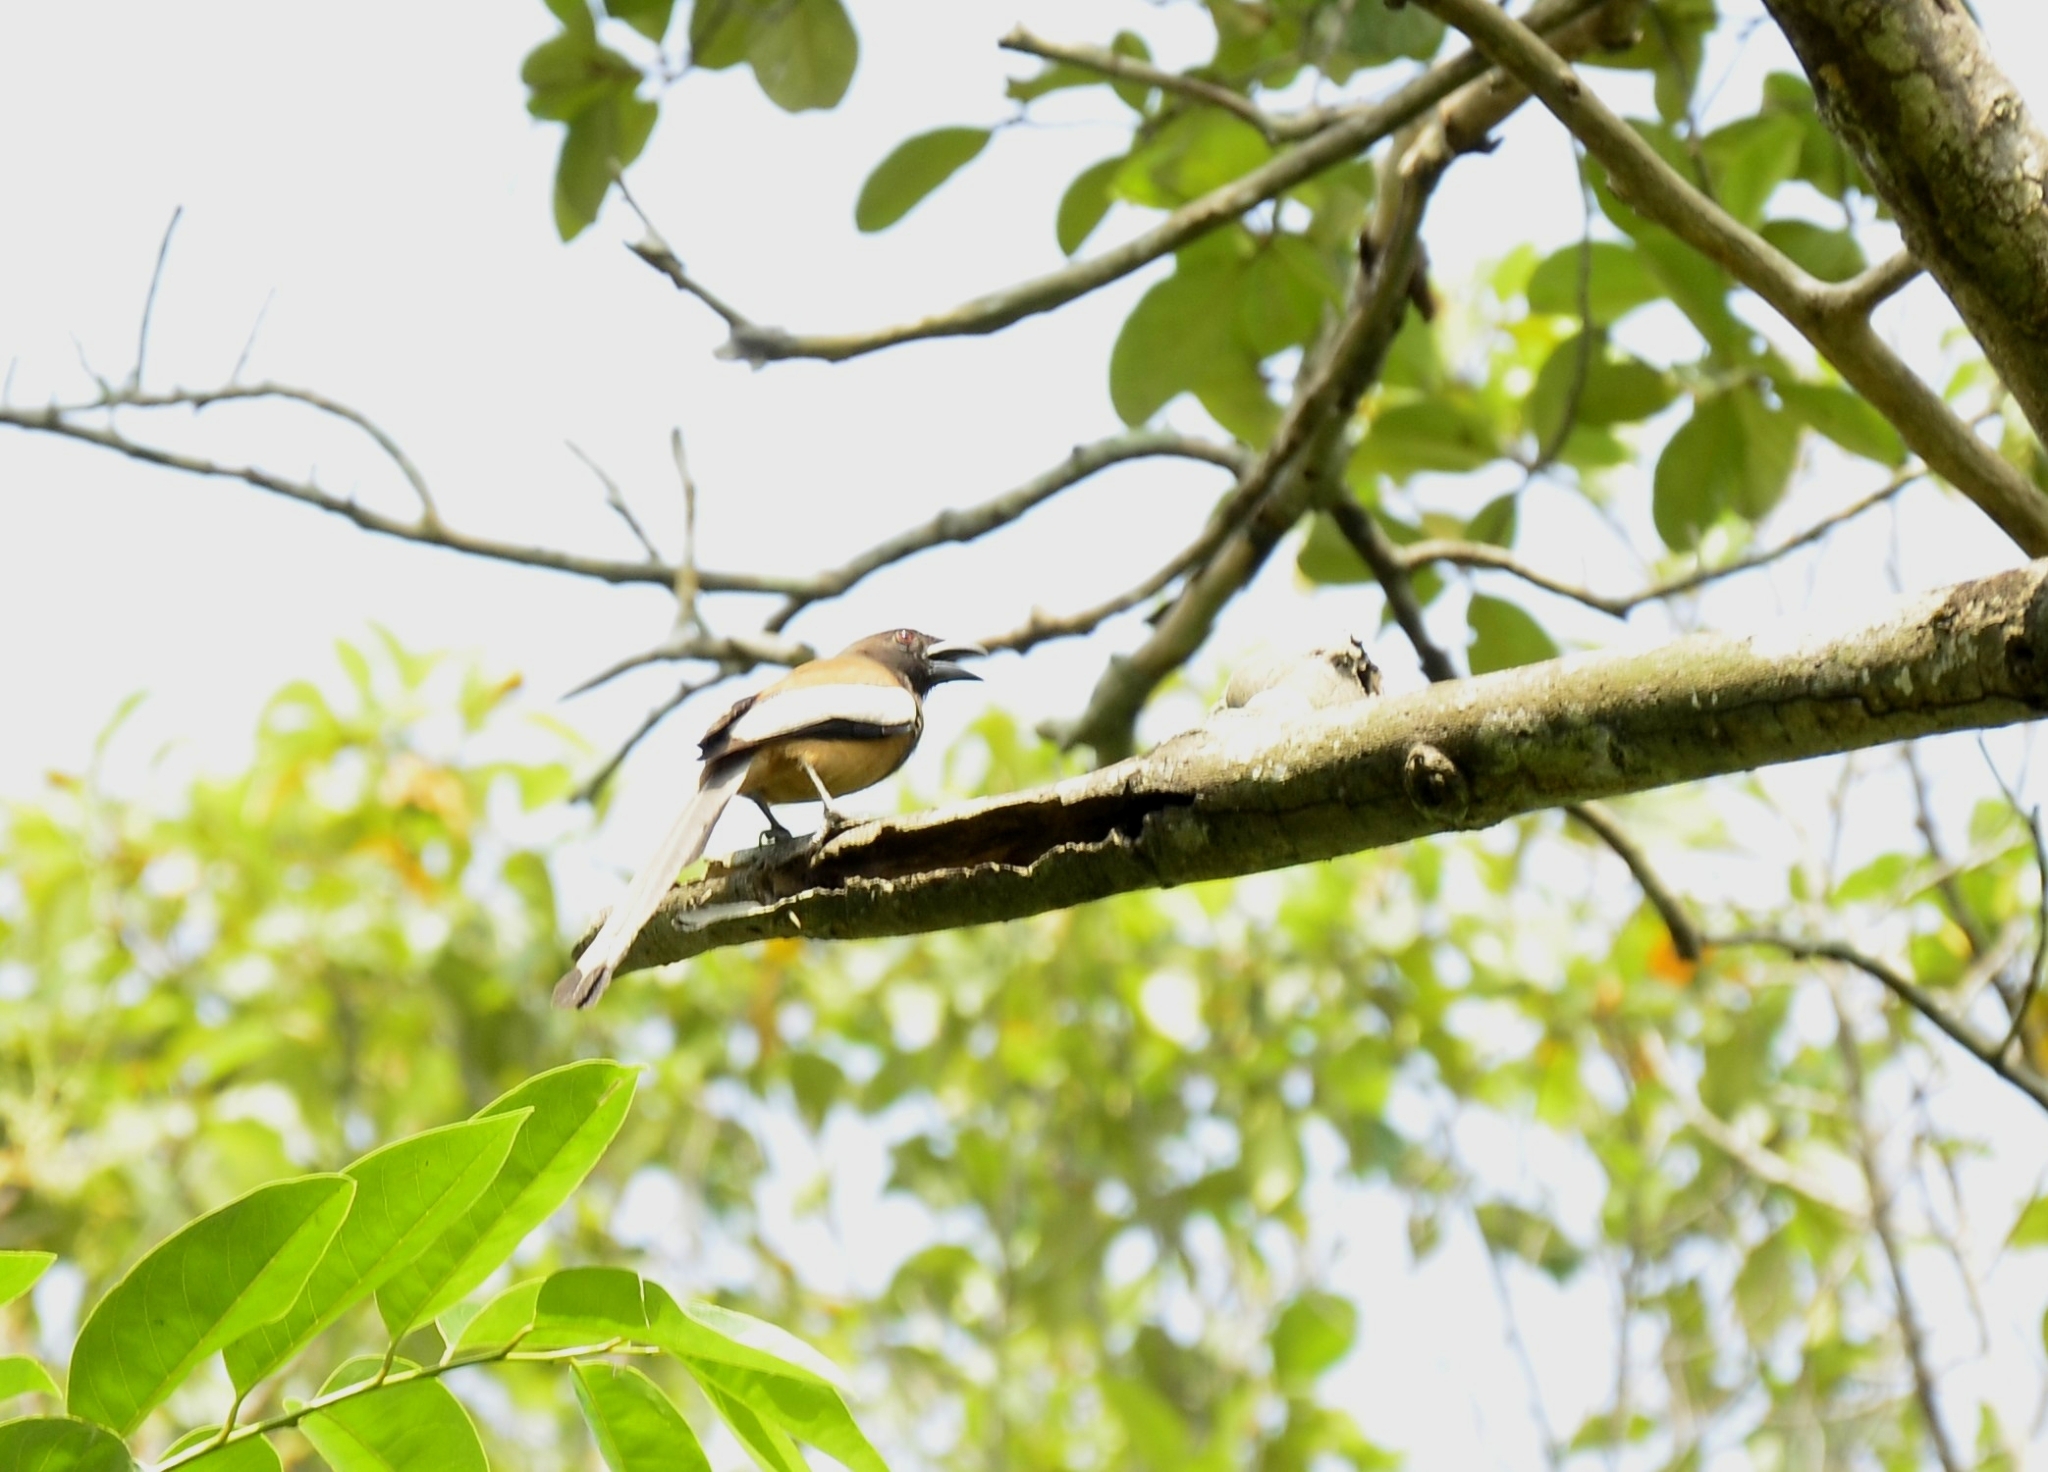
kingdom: Animalia
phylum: Chordata
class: Aves
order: Passeriformes
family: Corvidae
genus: Dendrocitta
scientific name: Dendrocitta vagabunda
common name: Rufous treepie
